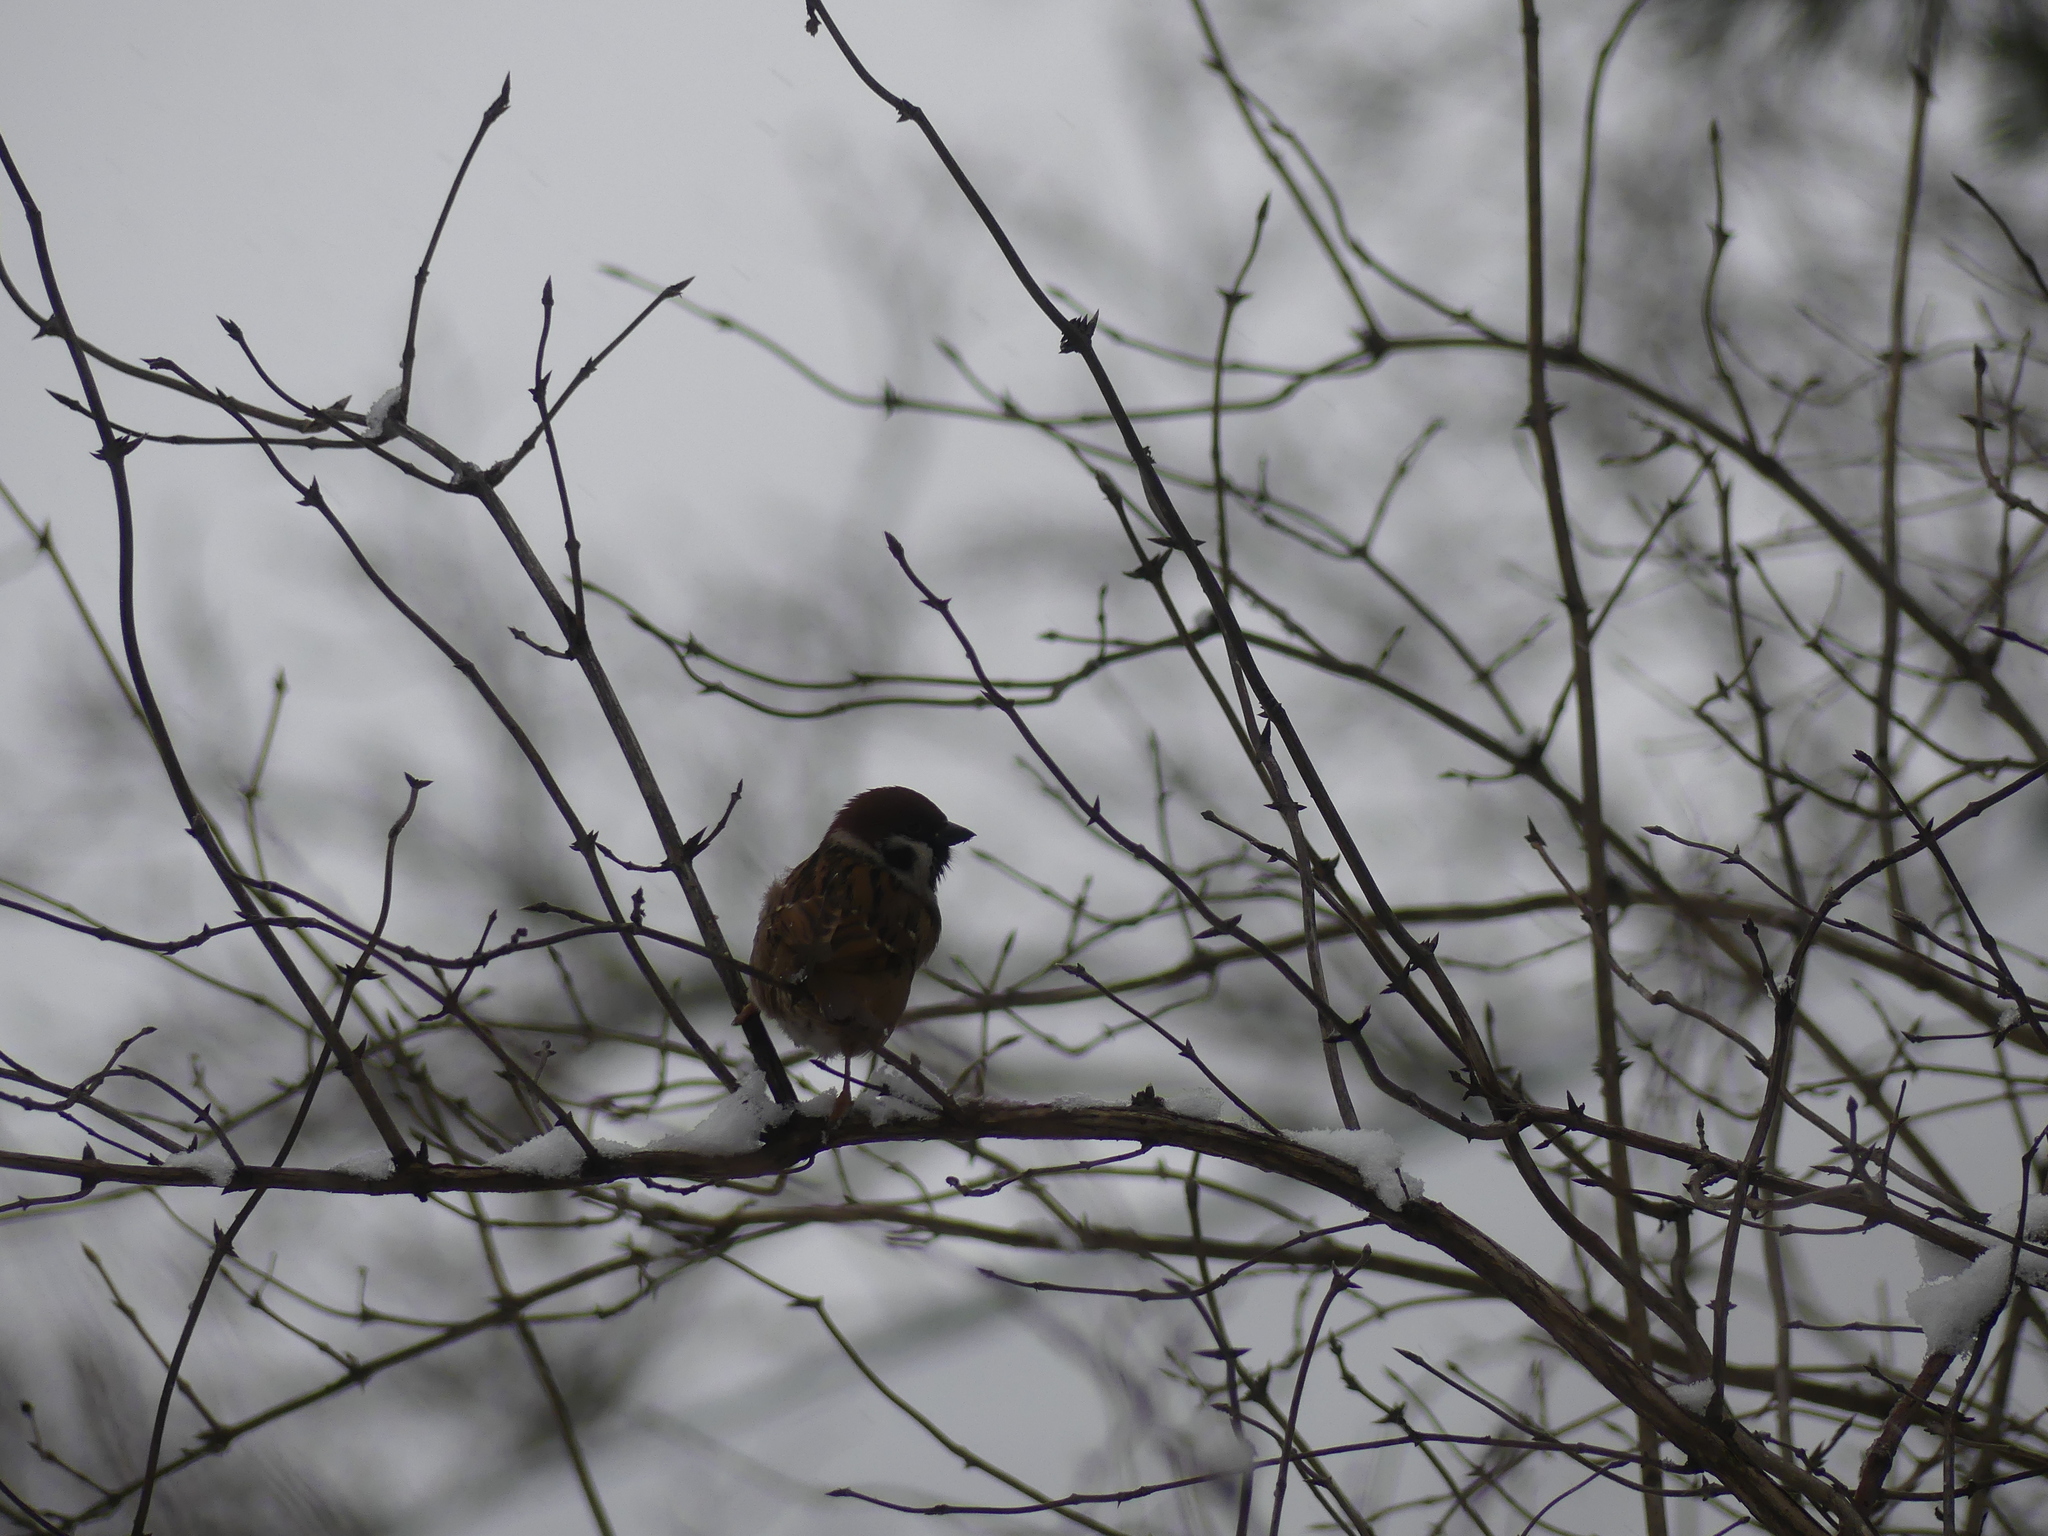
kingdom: Animalia
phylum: Chordata
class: Aves
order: Passeriformes
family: Passeridae
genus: Passer
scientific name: Passer montanus
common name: Eurasian tree sparrow
